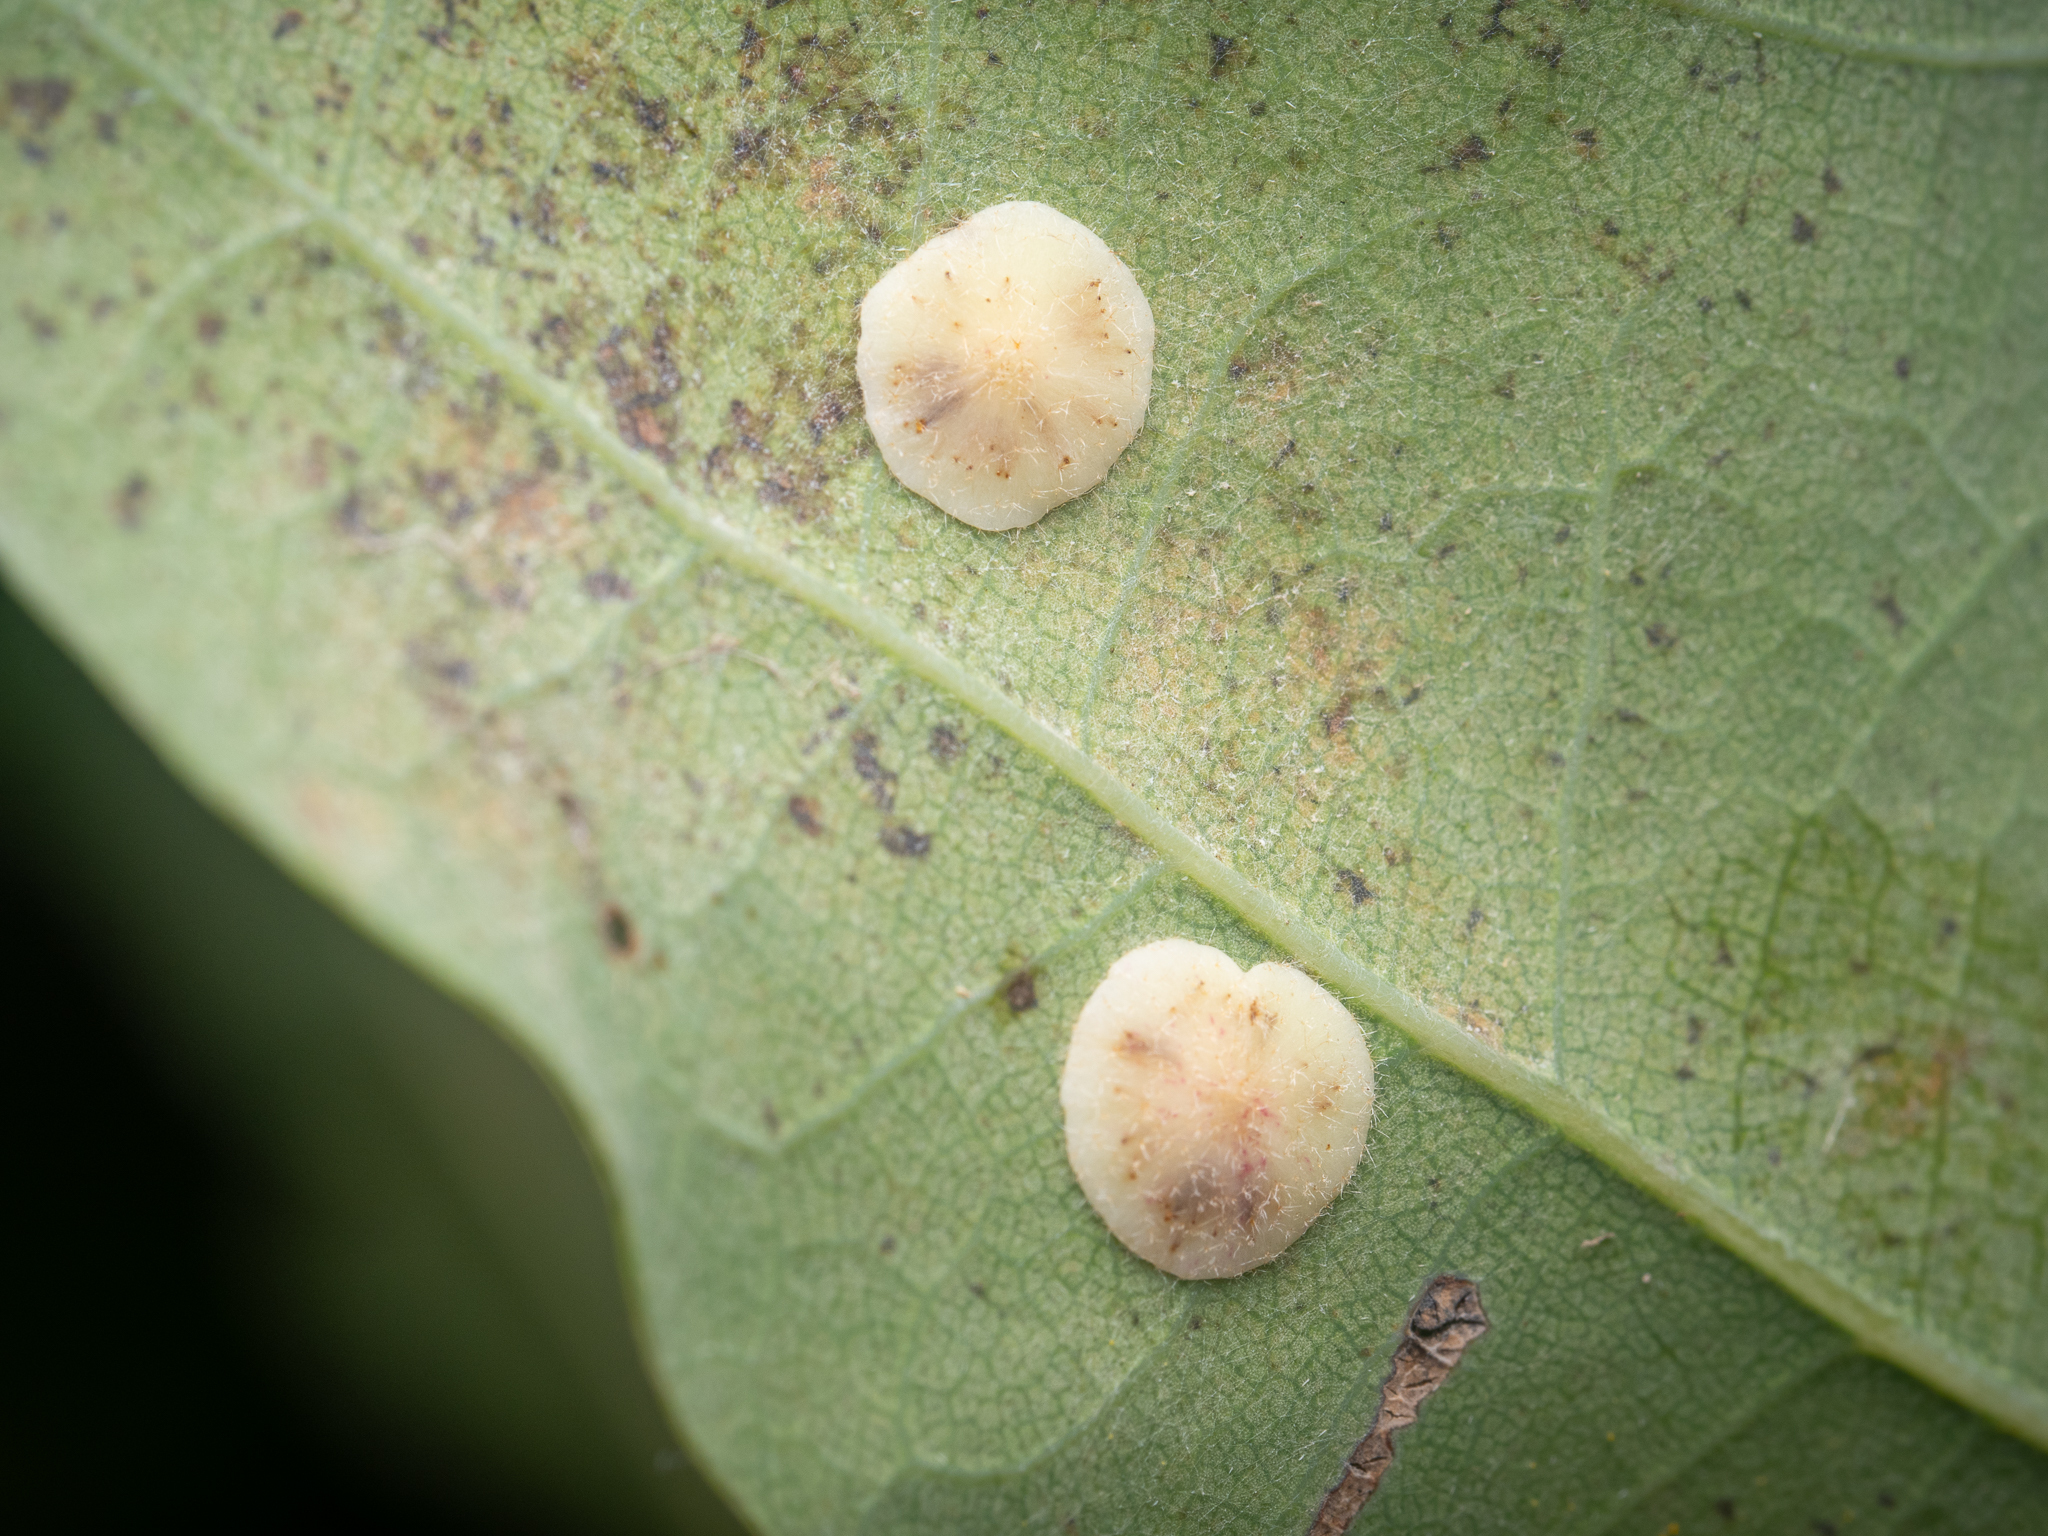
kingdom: Animalia
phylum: Arthropoda
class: Insecta
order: Hymenoptera
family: Cynipidae
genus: Neuroterus
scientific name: Neuroterus quercusbaccarum
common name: Common spangle gall
